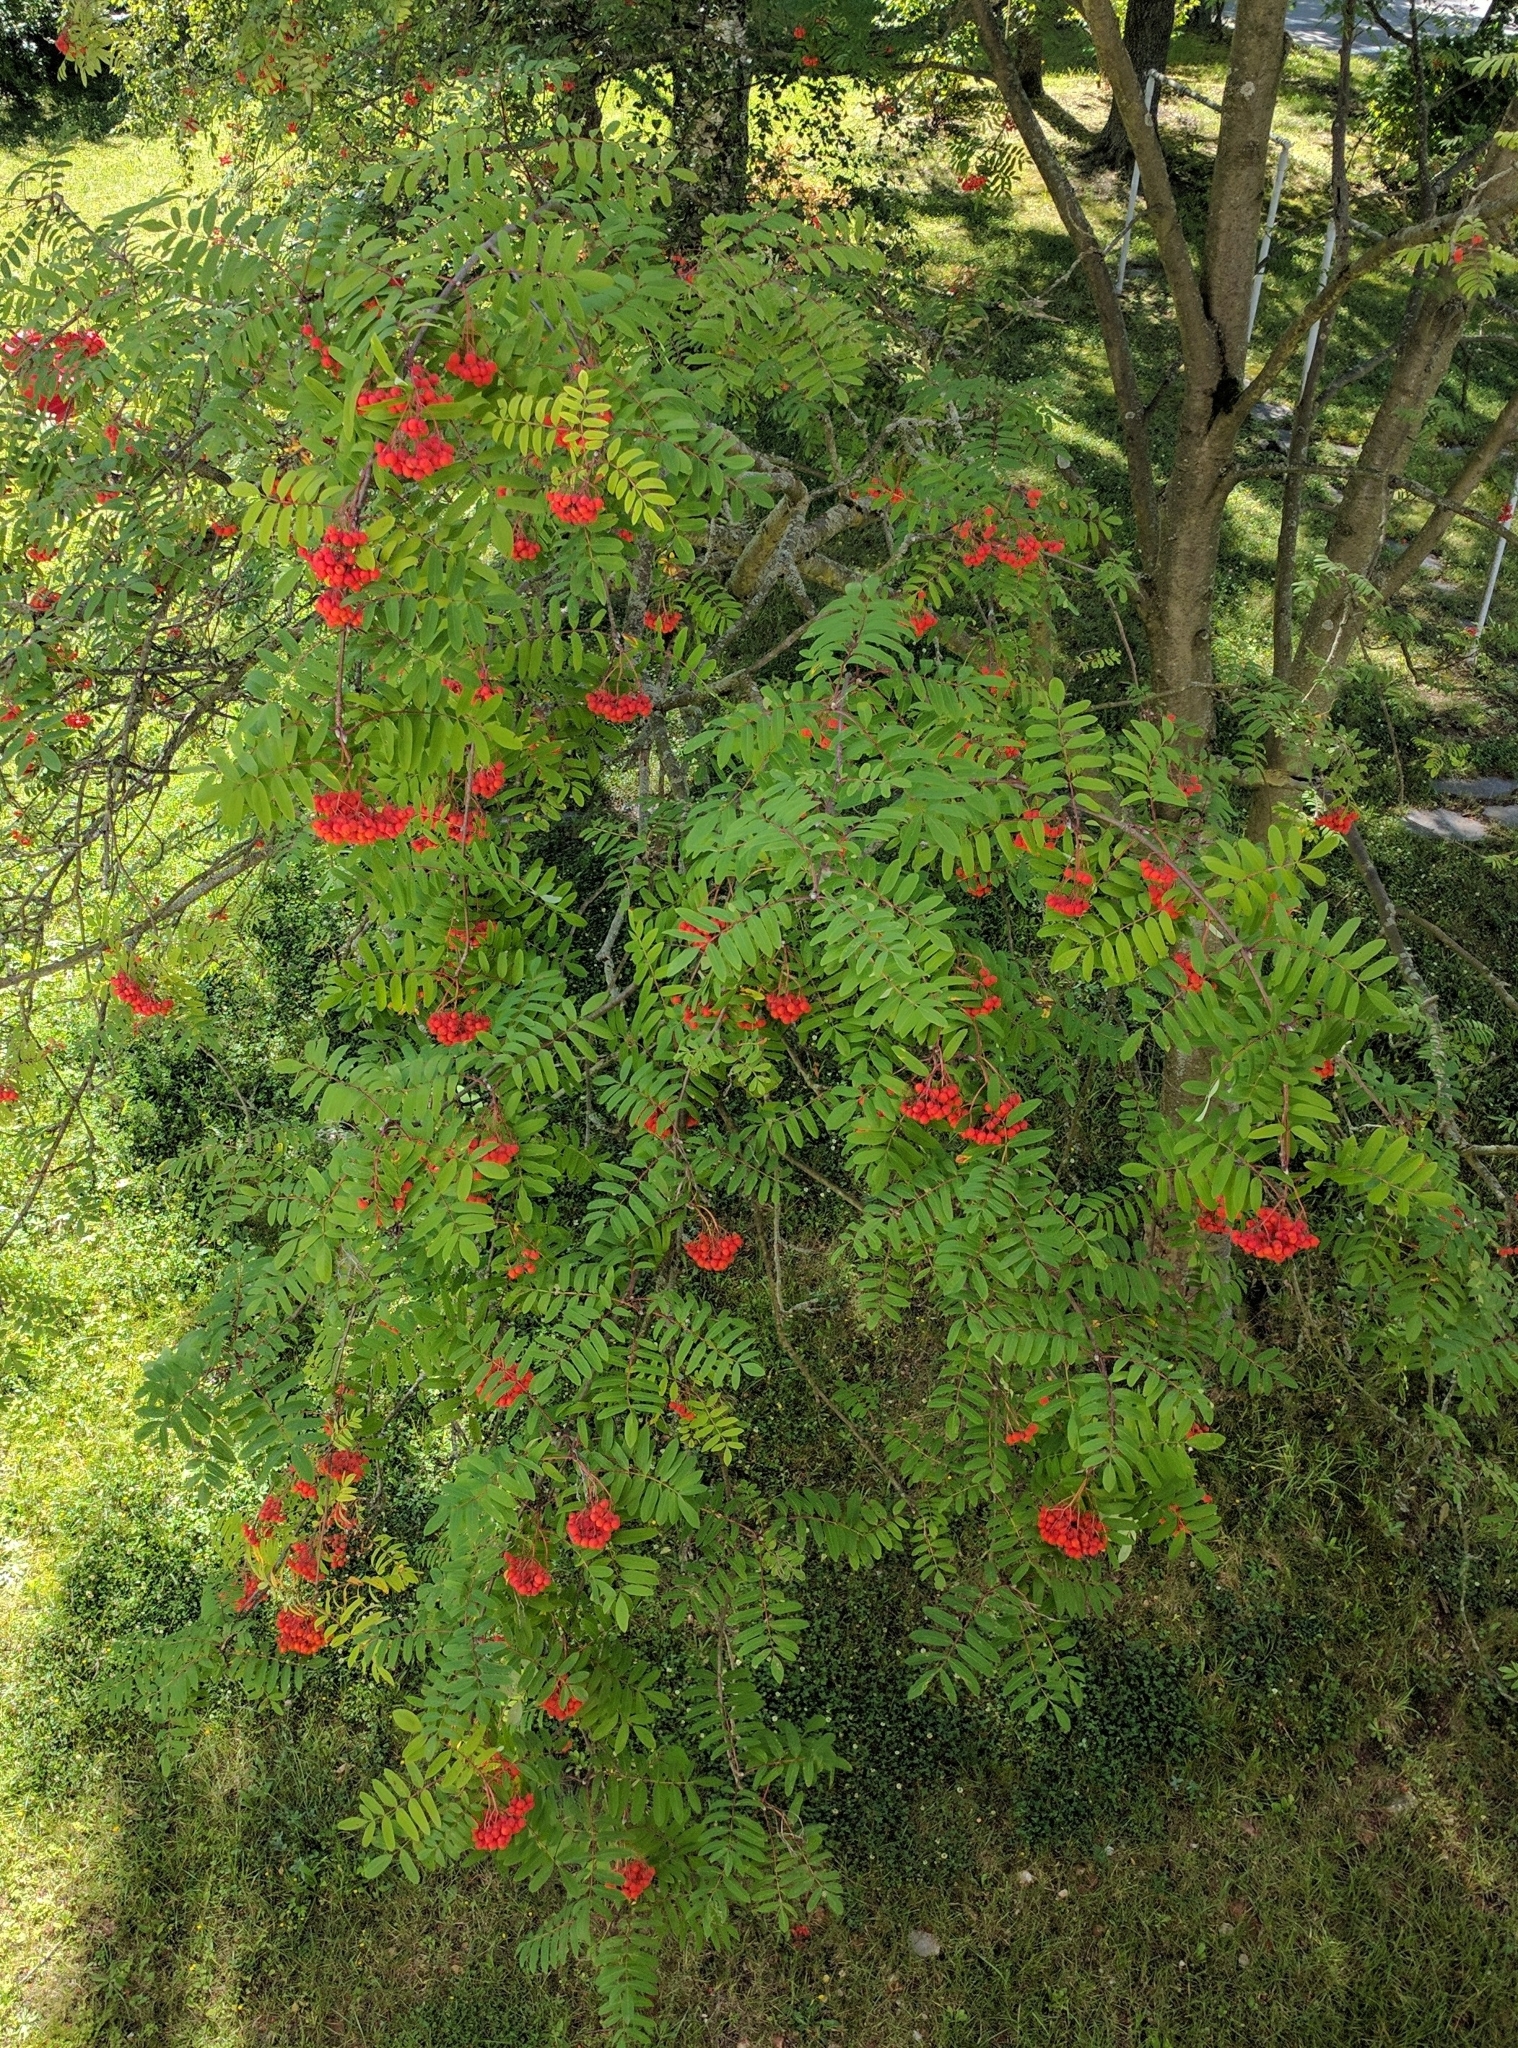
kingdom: Plantae
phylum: Tracheophyta
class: Magnoliopsida
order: Rosales
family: Rosaceae
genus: Sorbus
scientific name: Sorbus aucuparia
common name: Rowan
